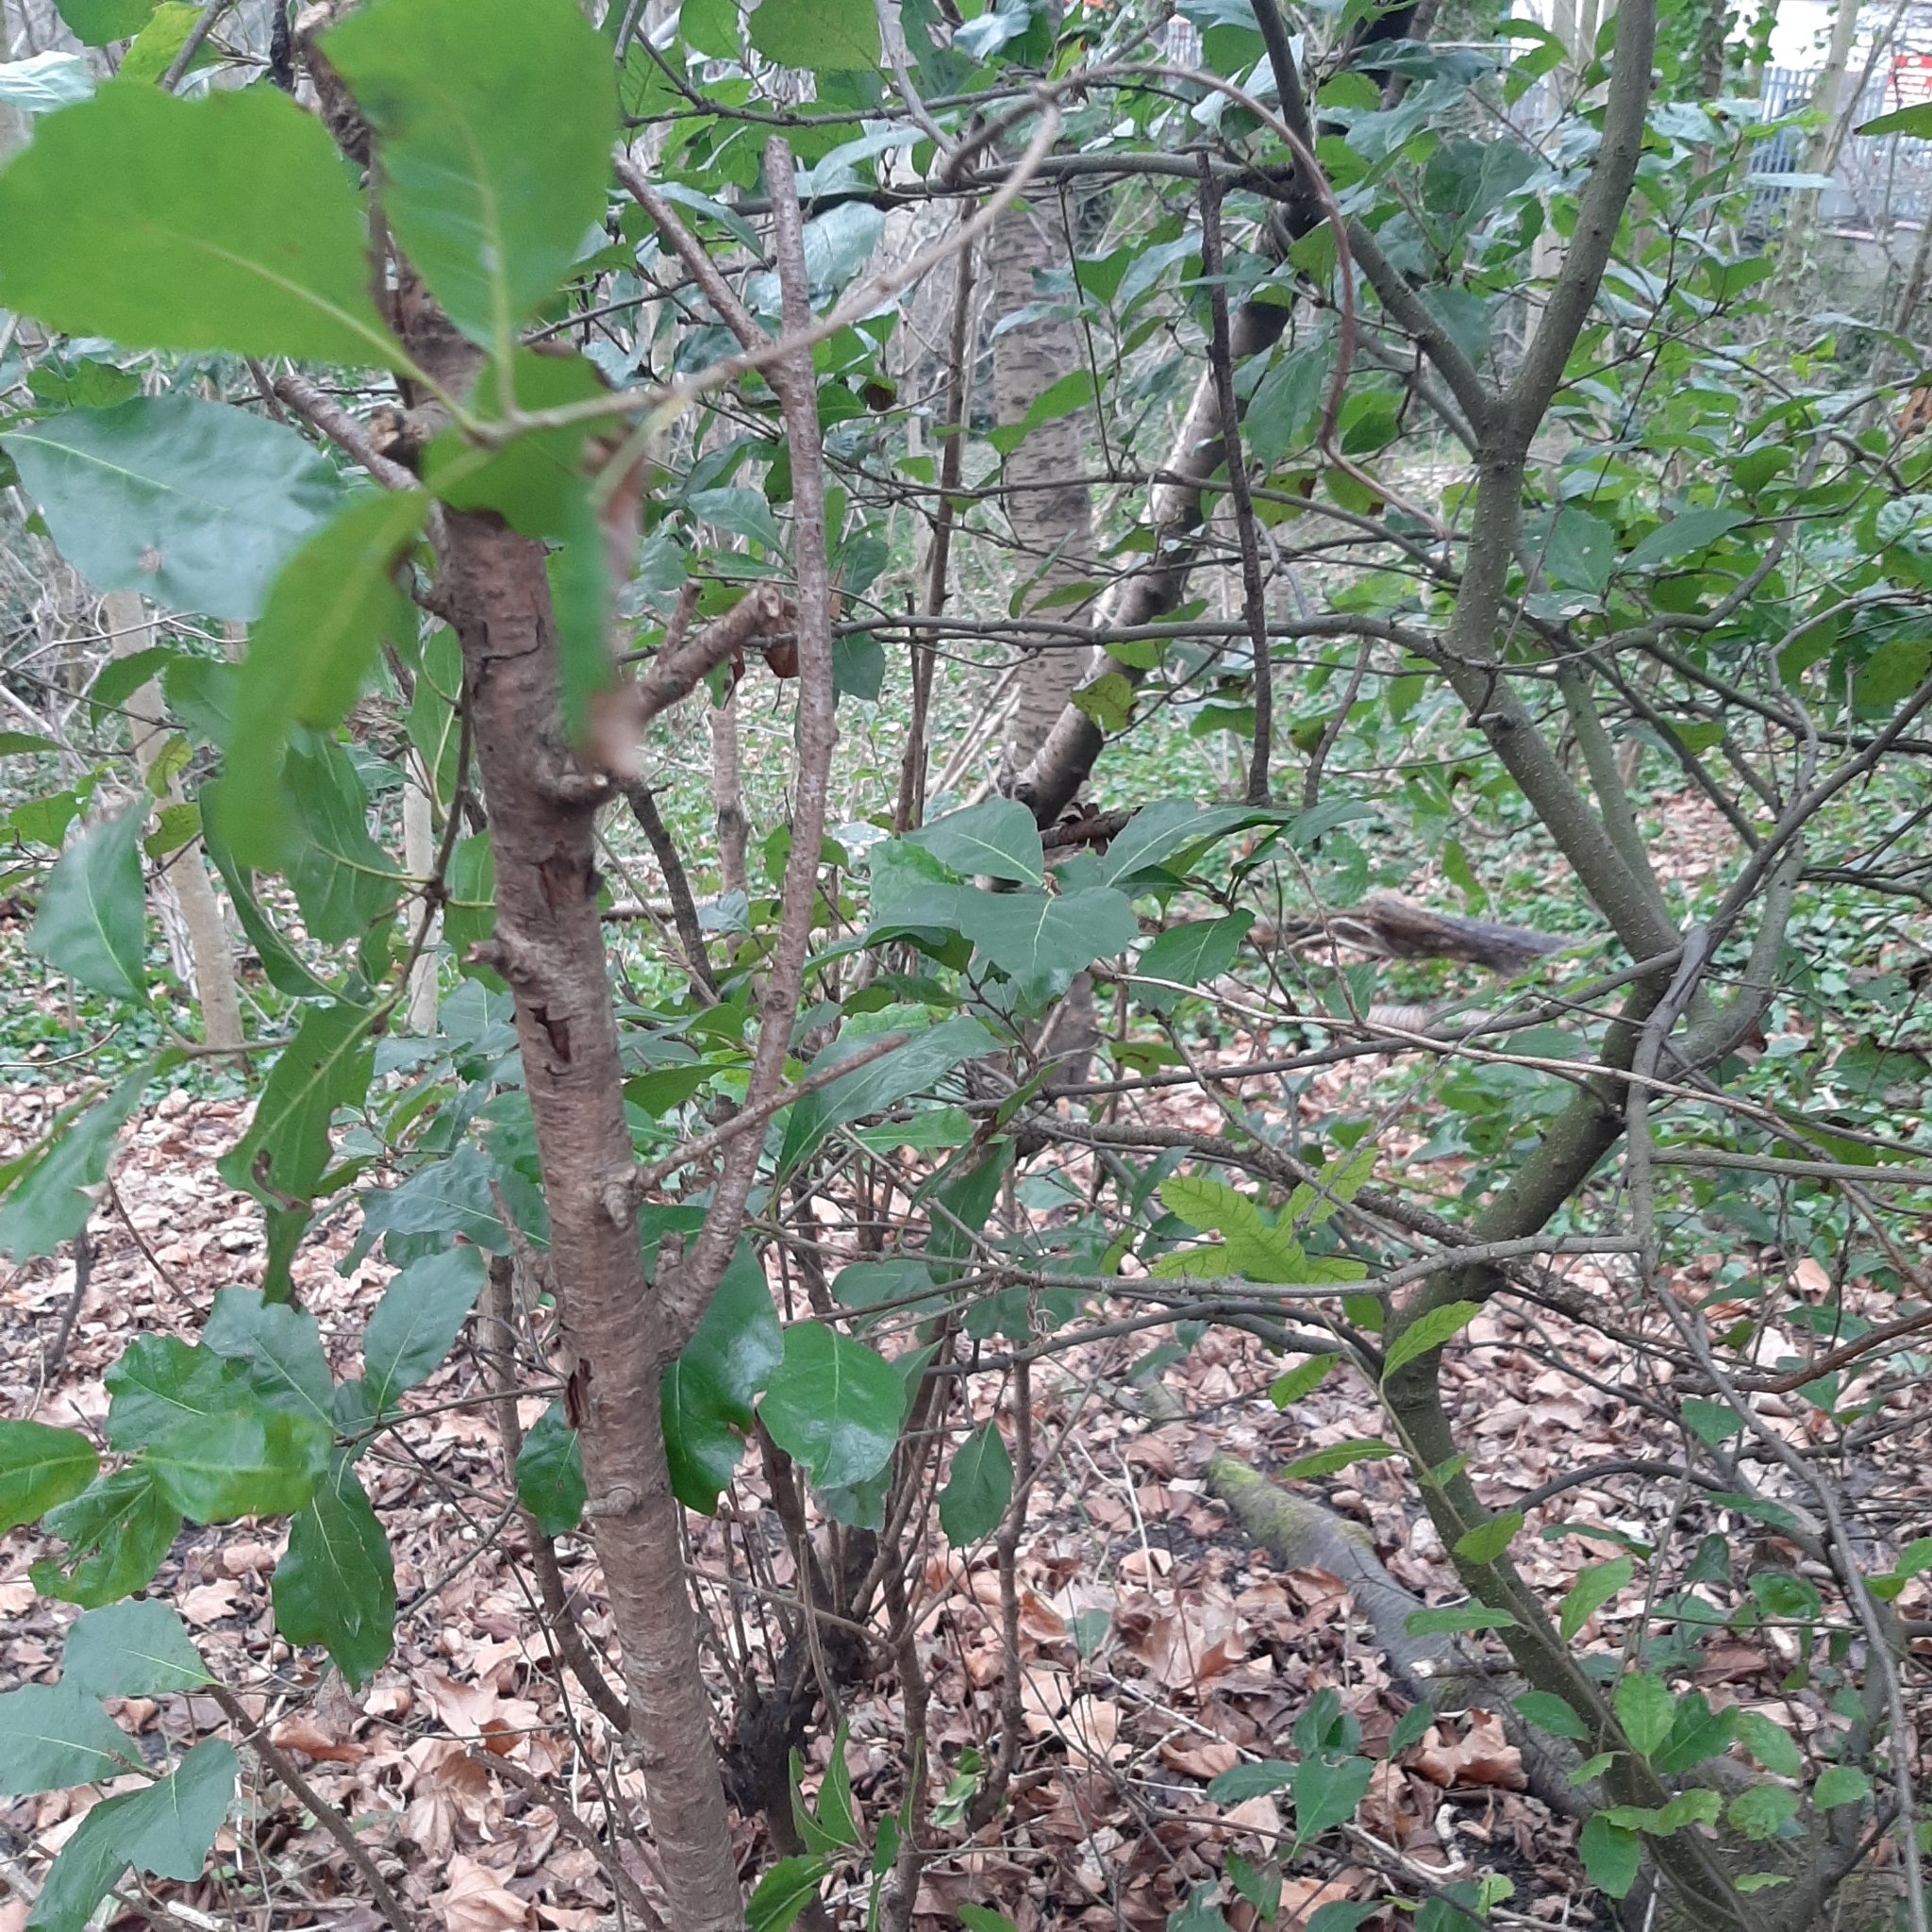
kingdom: Plantae
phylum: Tracheophyta
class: Magnoliopsida
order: Fagales
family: Fagaceae
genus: Fagus
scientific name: Fagus sylvatica
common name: Beech
